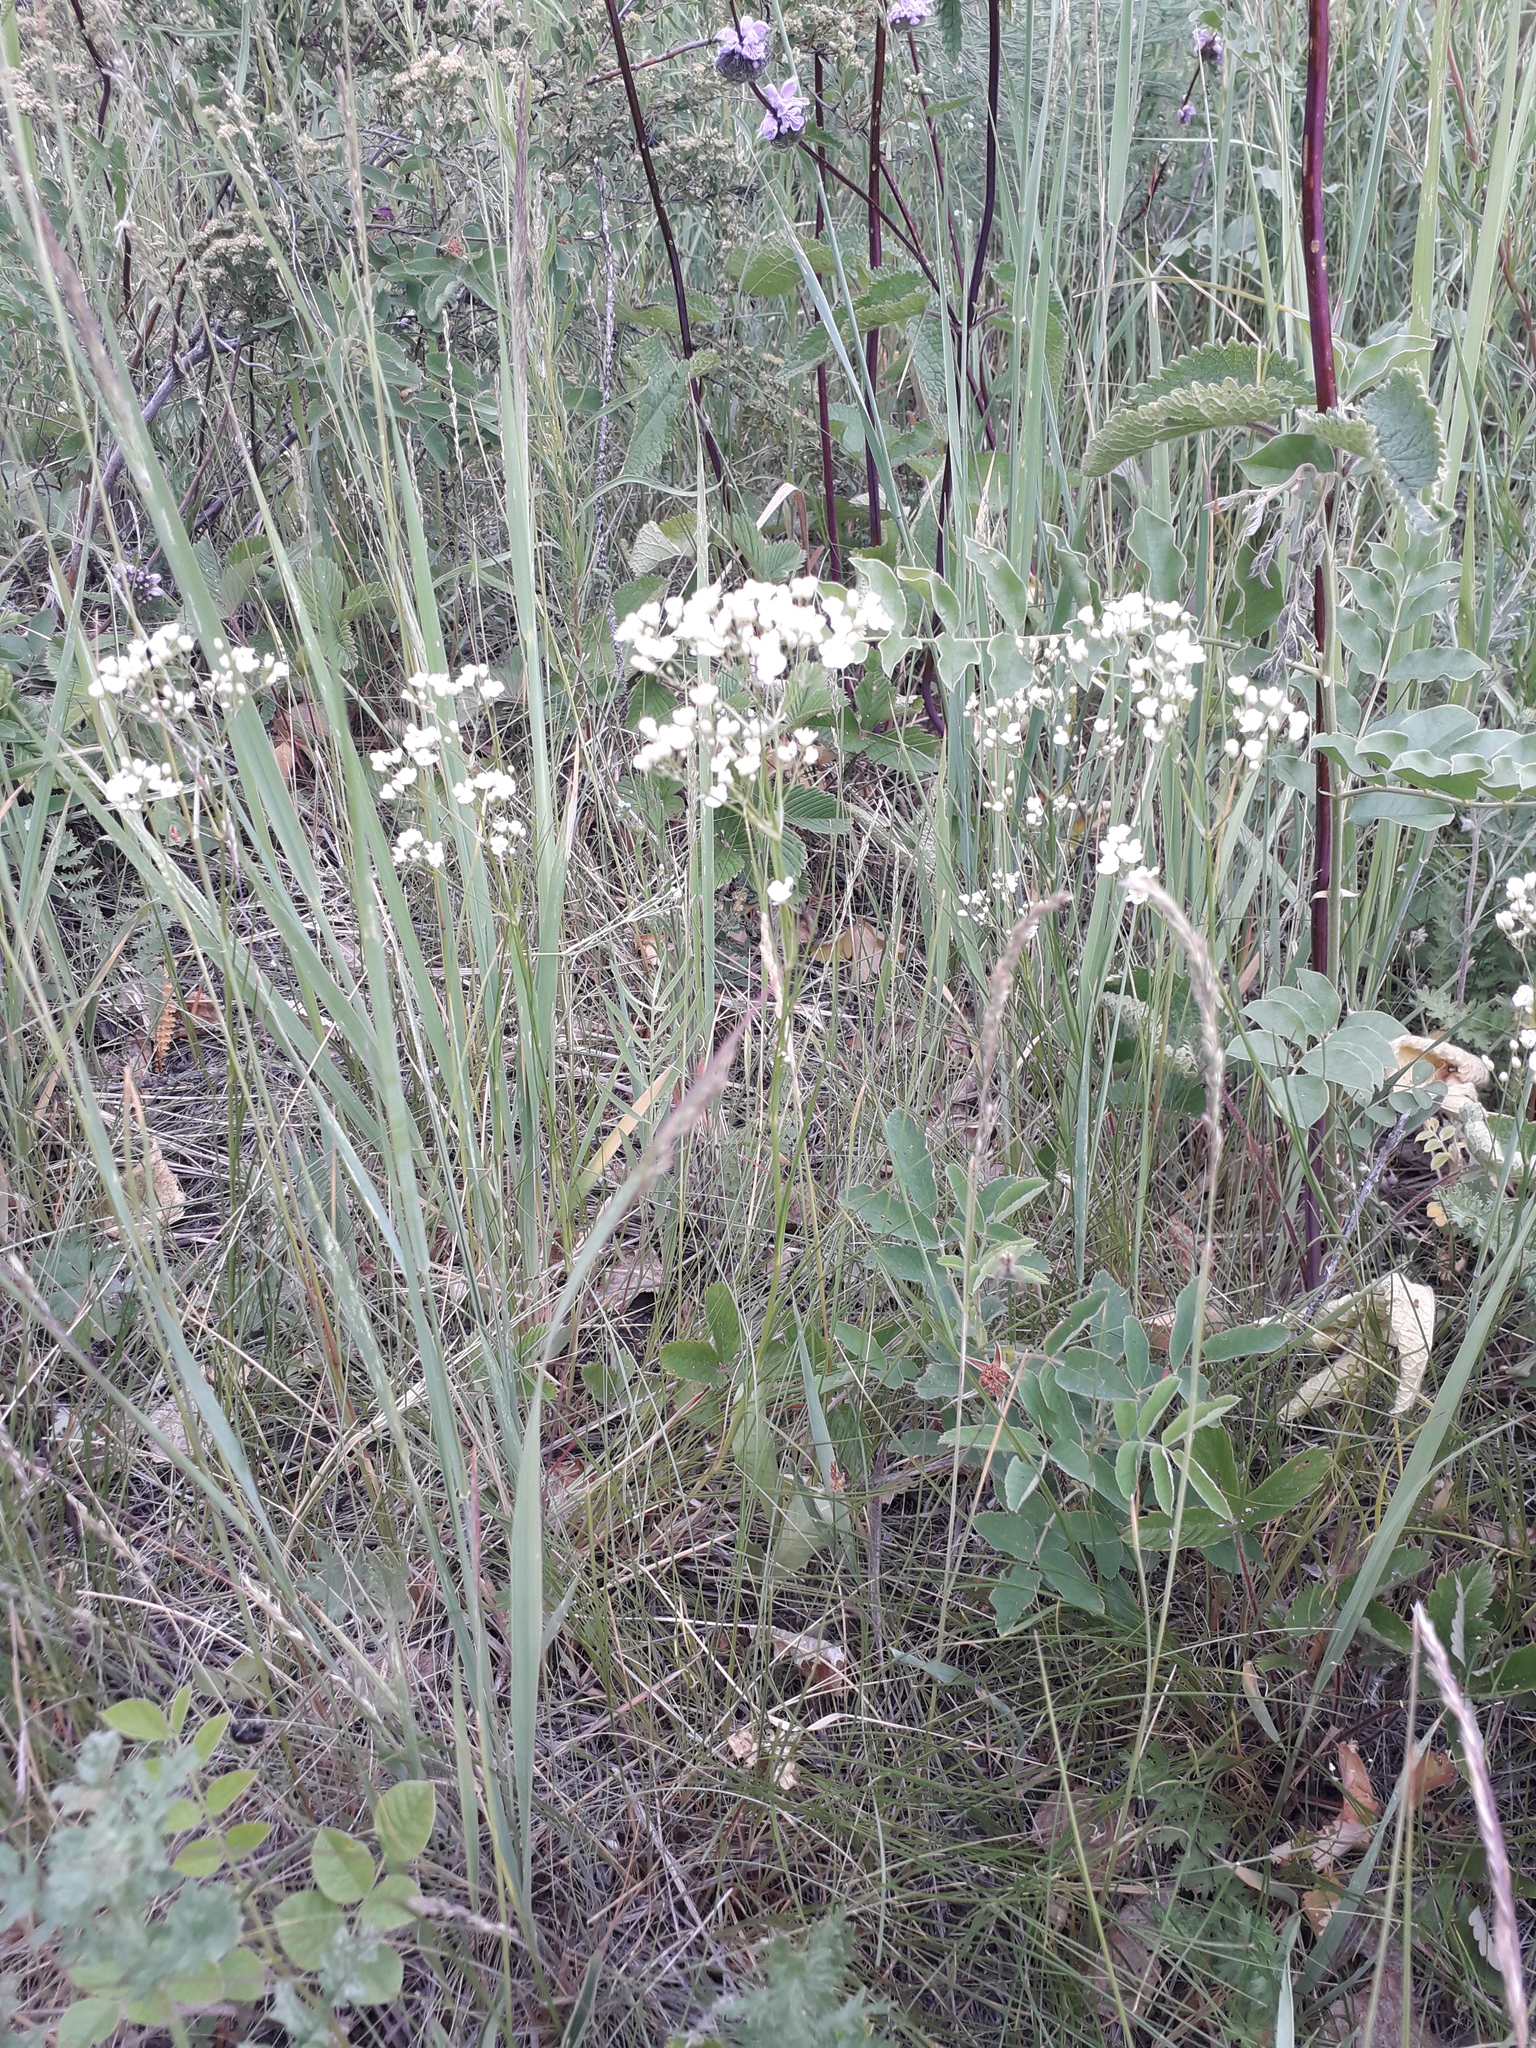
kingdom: Plantae
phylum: Tracheophyta
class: Magnoliopsida
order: Caryophyllales
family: Caryophyllaceae
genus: Eremogone
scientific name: Eremogone longifolia
